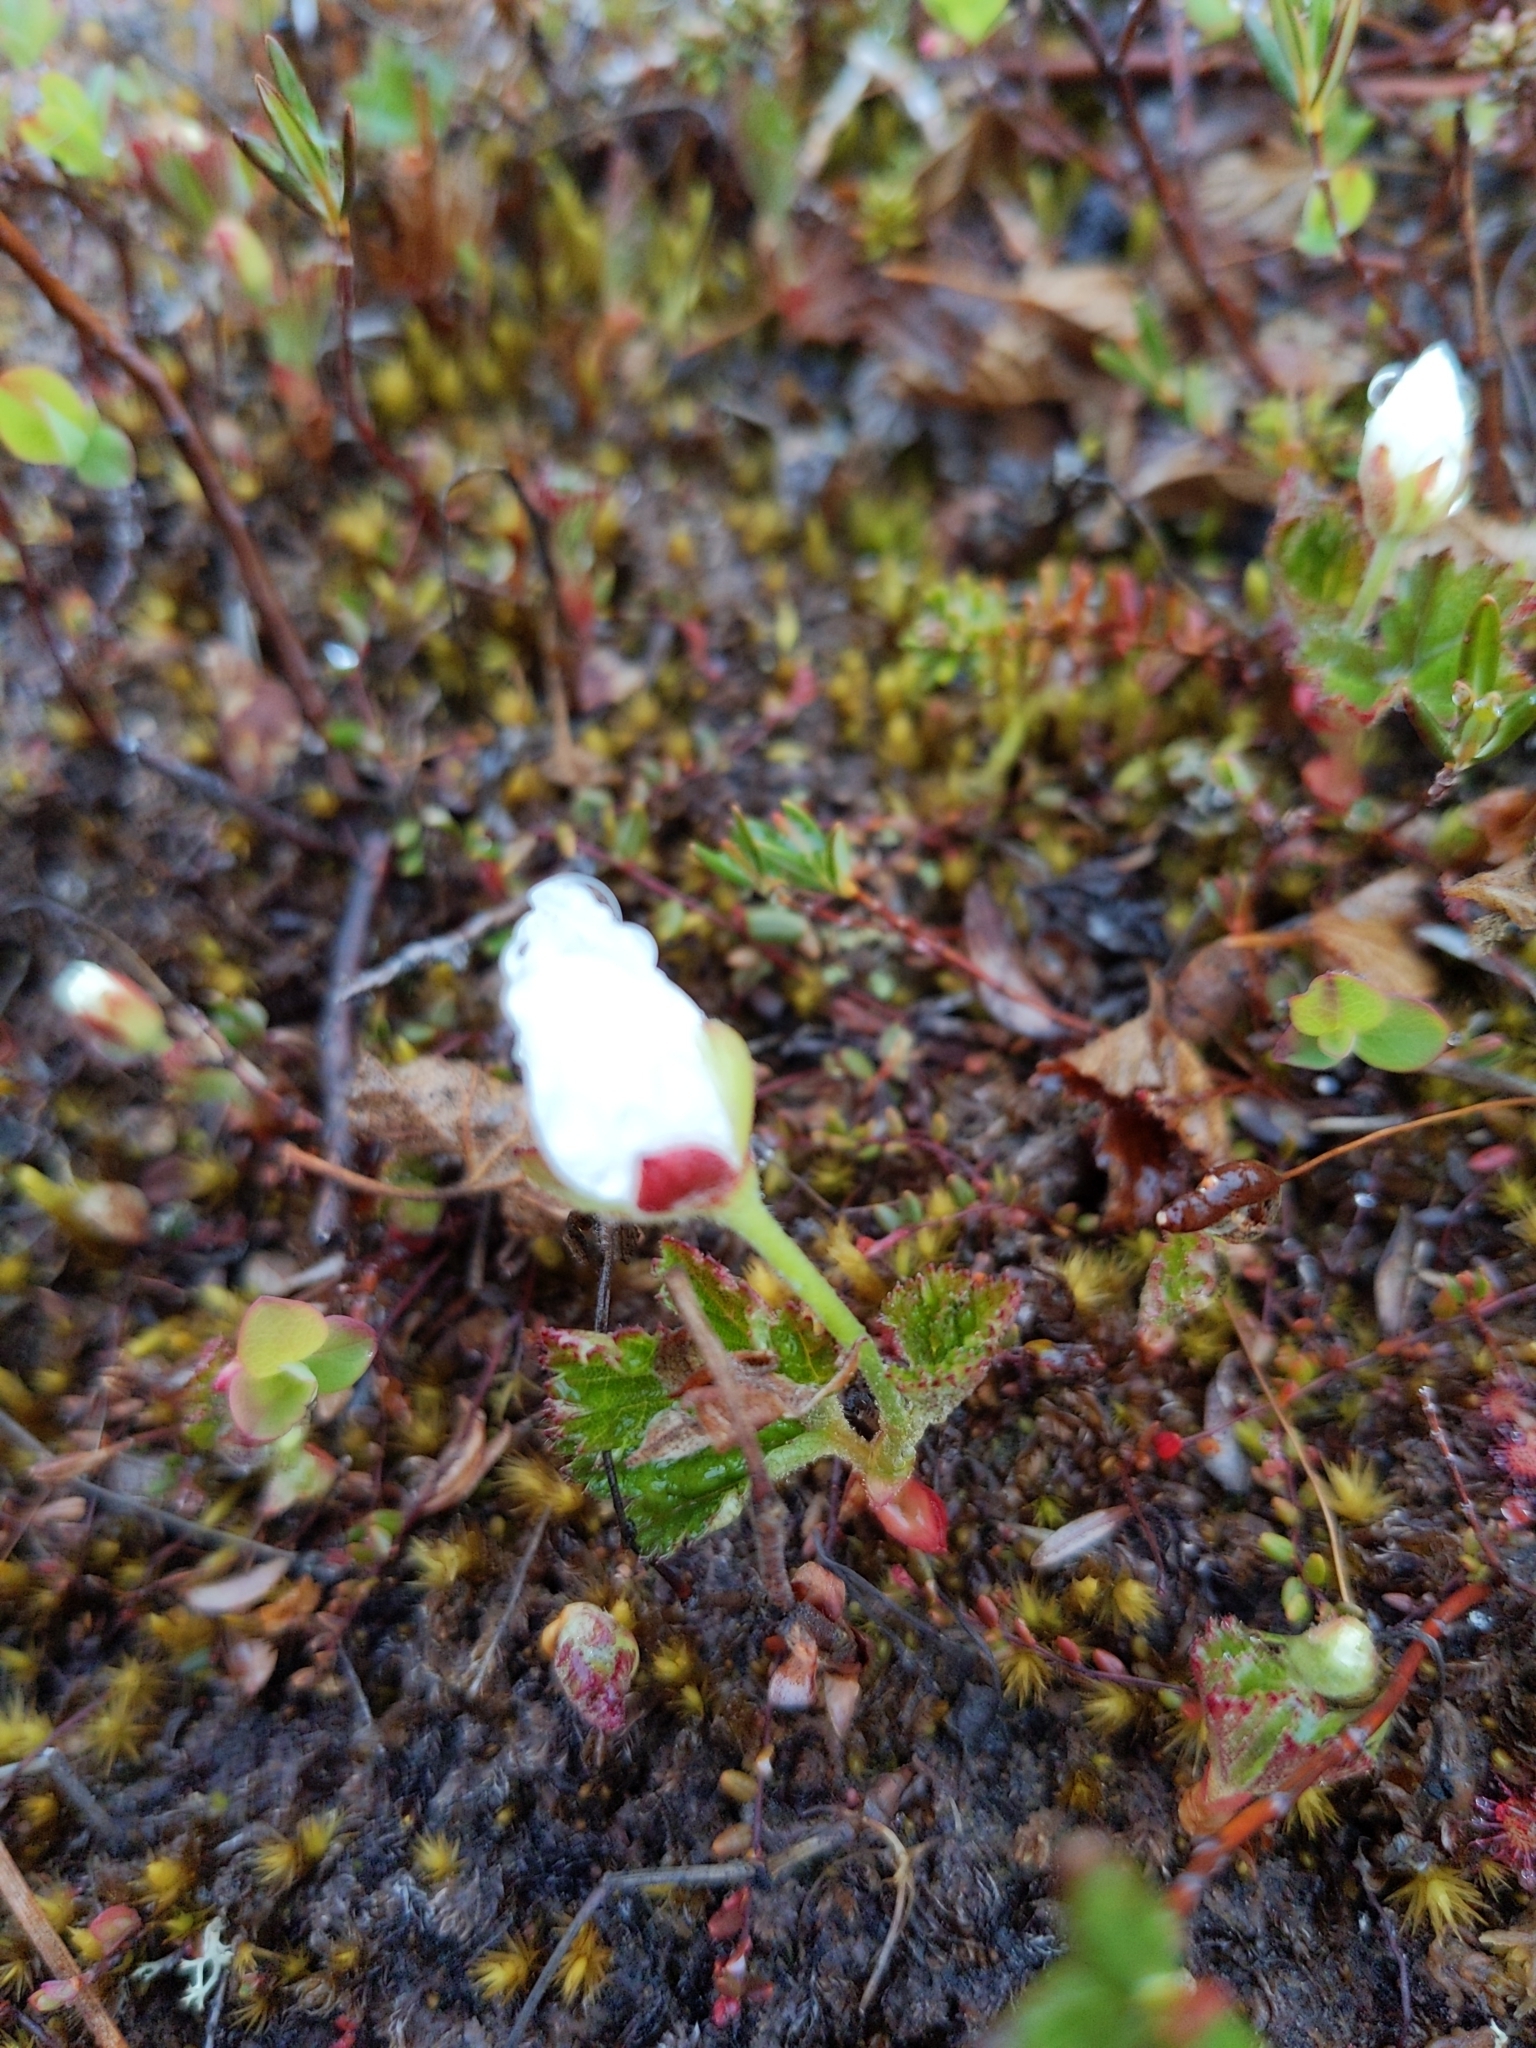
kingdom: Plantae
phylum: Tracheophyta
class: Magnoliopsida
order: Rosales
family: Rosaceae
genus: Rubus
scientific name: Rubus chamaemorus
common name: Cloudberry
